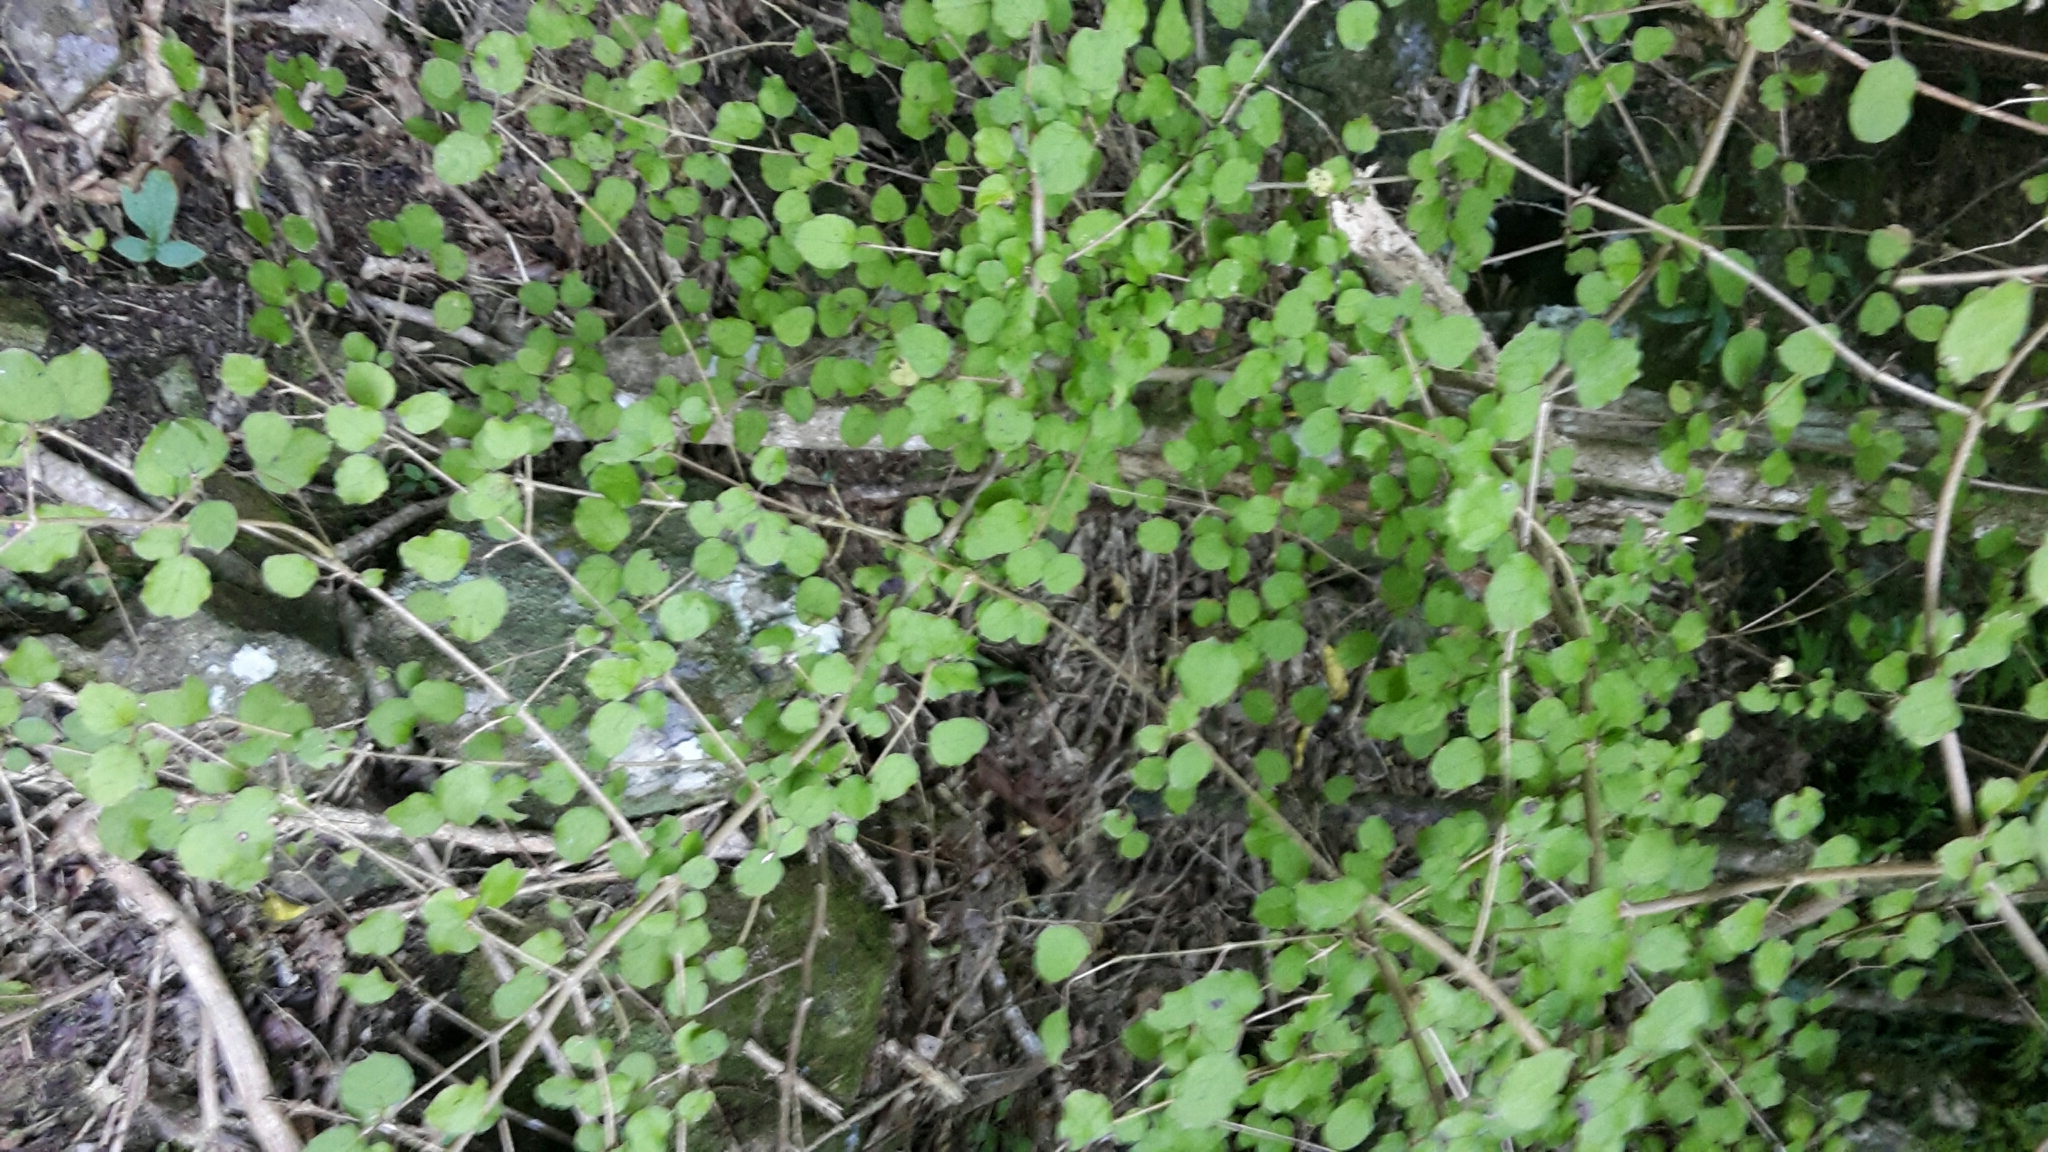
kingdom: Plantae
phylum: Tracheophyta
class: Magnoliopsida
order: Gentianales
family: Rubiaceae
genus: Coprosma
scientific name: Coprosma rotundifolia
